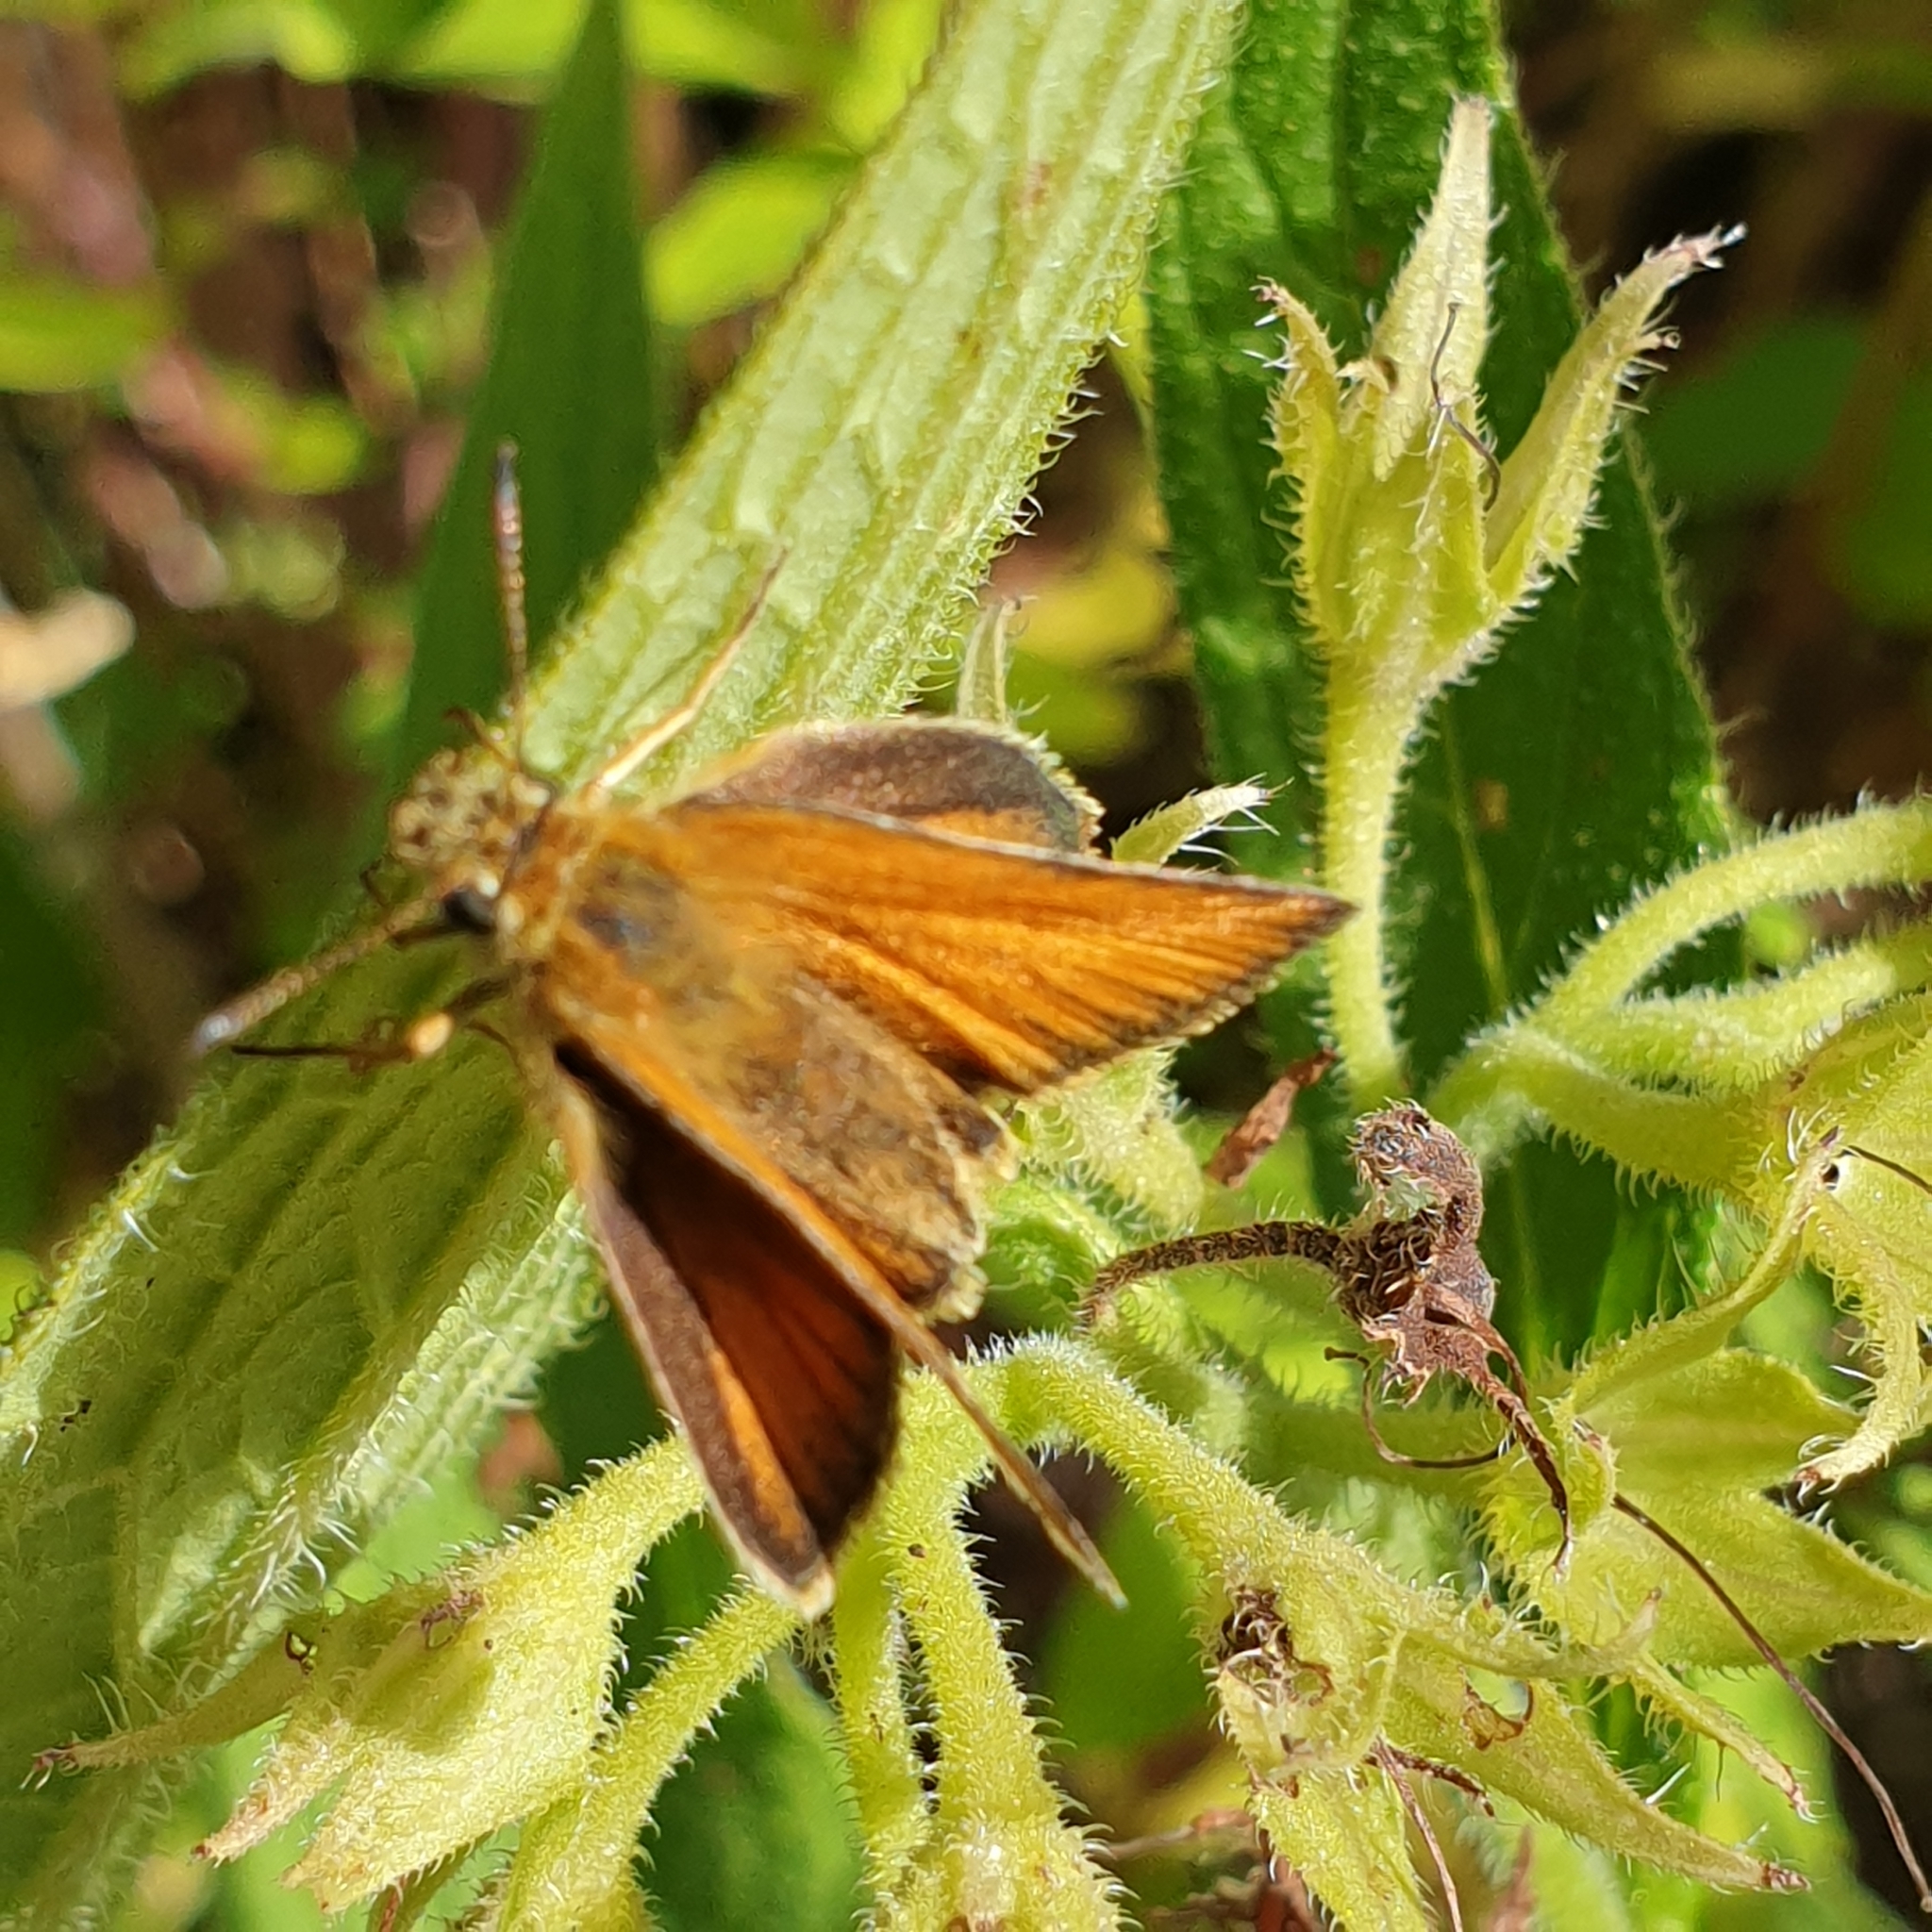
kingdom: Animalia
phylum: Arthropoda
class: Insecta
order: Lepidoptera
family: Hesperiidae
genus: Thymelicus
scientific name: Thymelicus lineola
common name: Essex skipper
